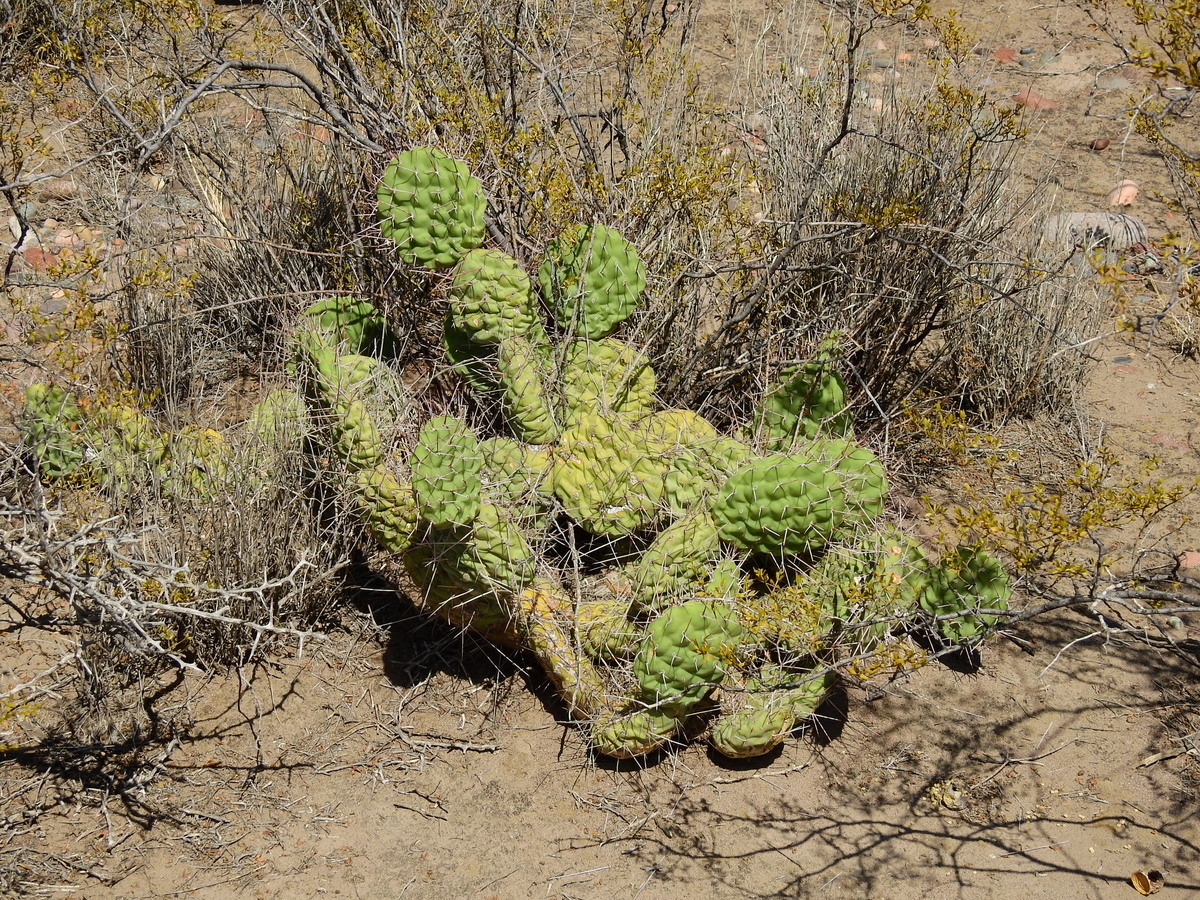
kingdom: Plantae
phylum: Tracheophyta
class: Magnoliopsida
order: Caryophyllales
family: Cactaceae
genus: Opuntia
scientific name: Opuntia sulphurea
